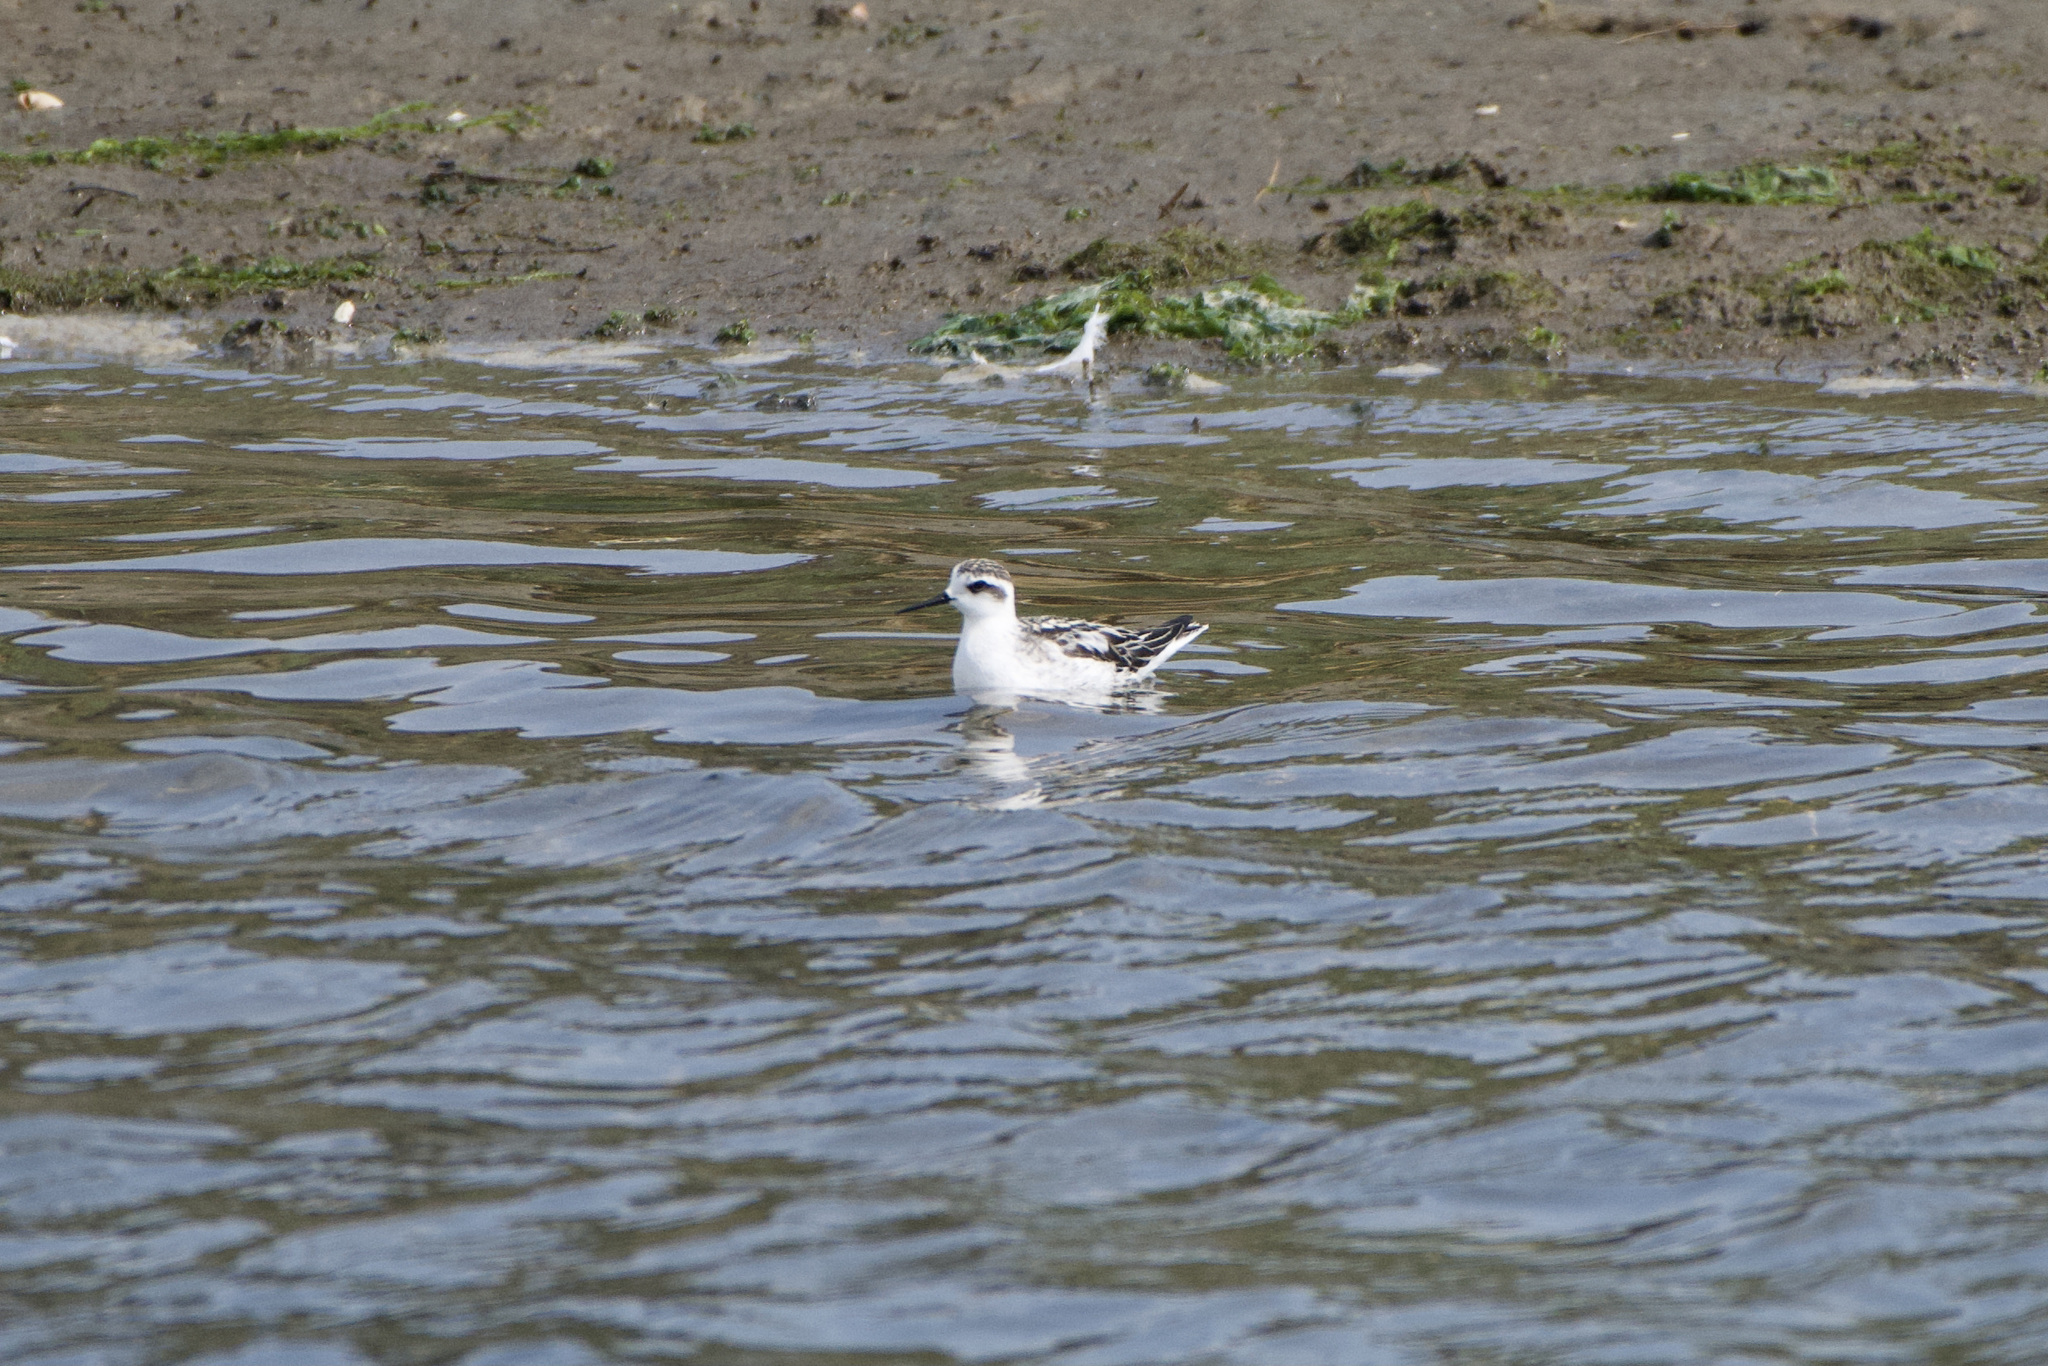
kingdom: Animalia
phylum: Chordata
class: Aves
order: Charadriiformes
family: Scolopacidae
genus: Phalaropus
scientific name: Phalaropus lobatus
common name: Red-necked phalarope
